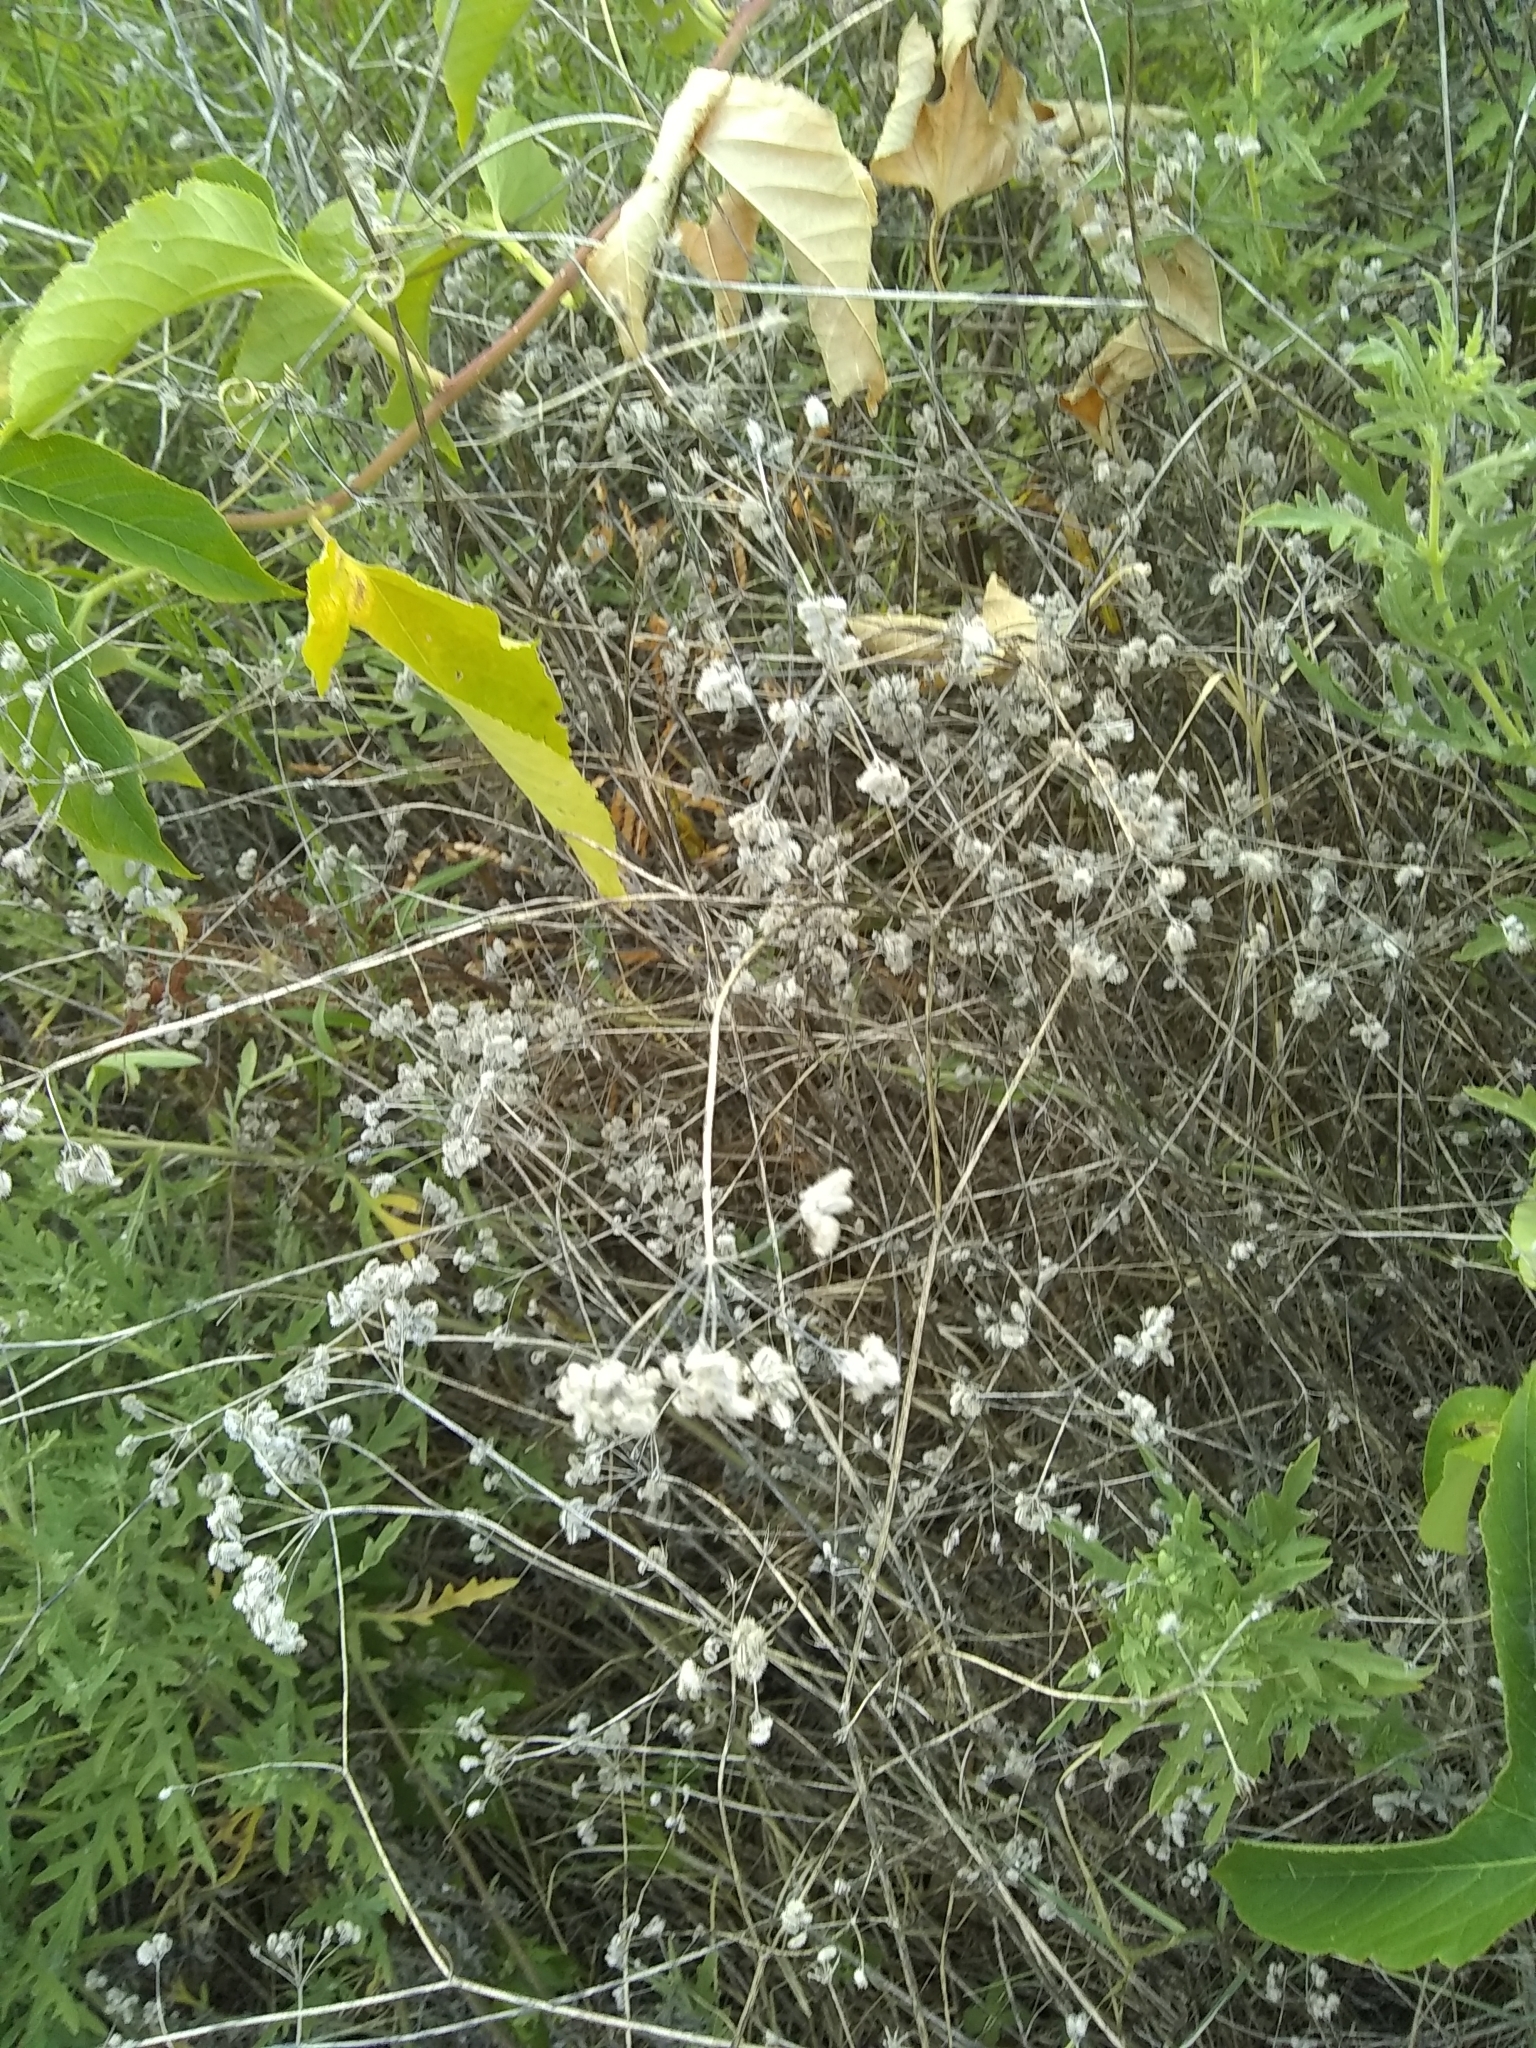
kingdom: Plantae
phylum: Tracheophyta
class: Magnoliopsida
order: Apiales
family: Apiaceae
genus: Torilis
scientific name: Torilis arvensis
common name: Spreading hedge-parsley
